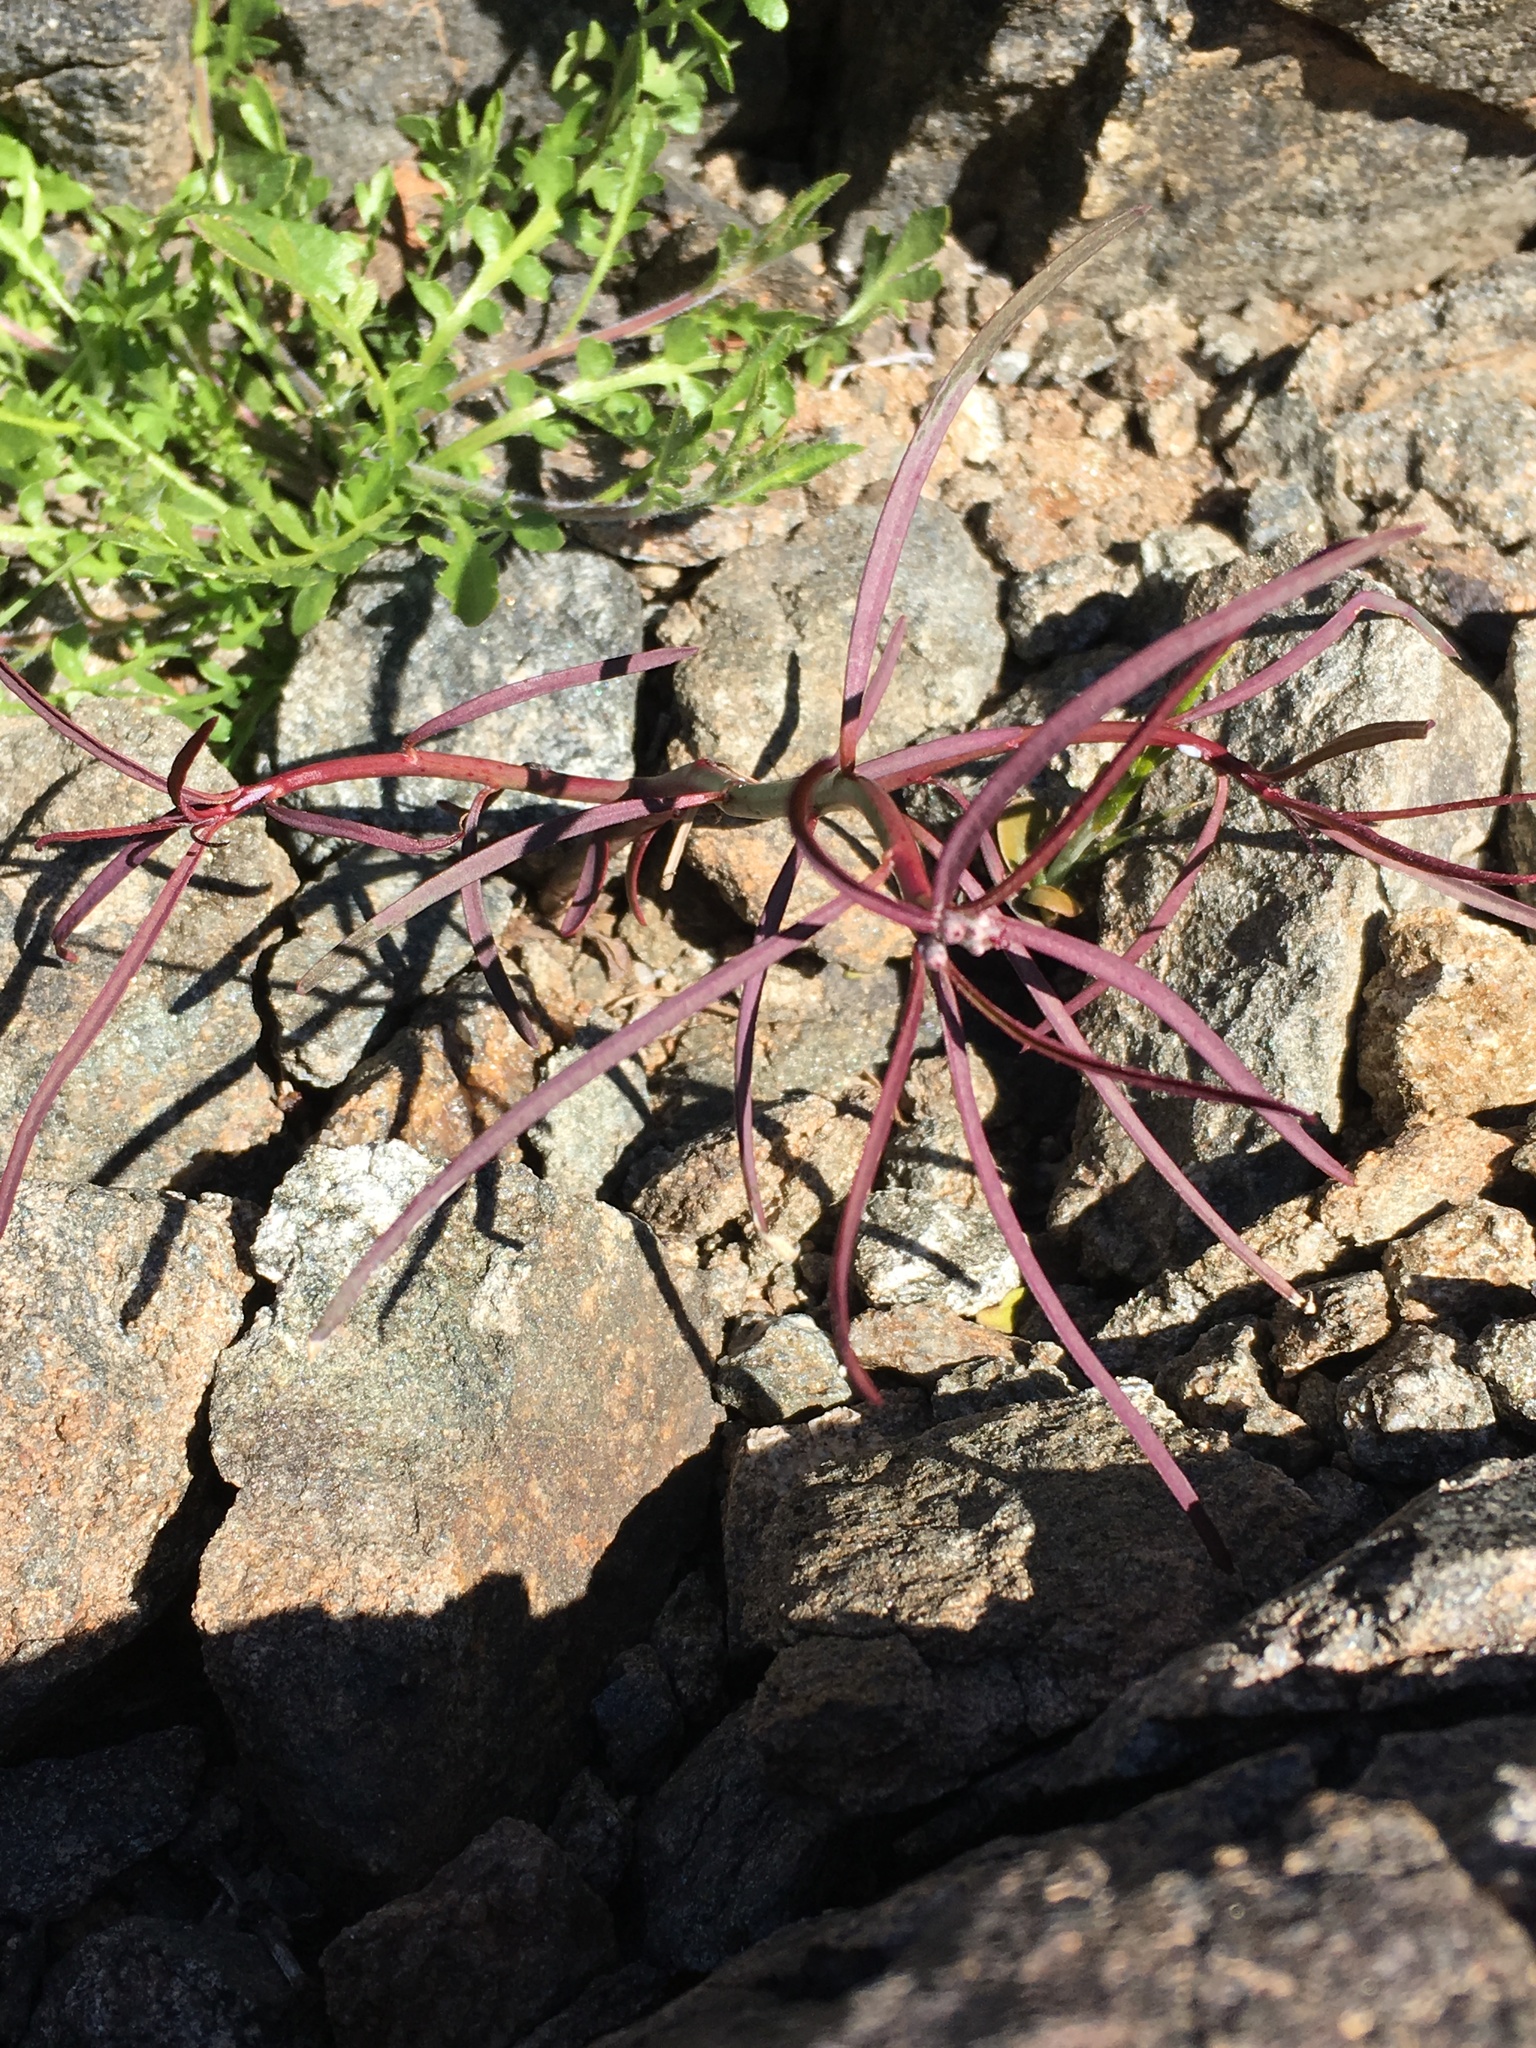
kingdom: Plantae
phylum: Tracheophyta
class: Magnoliopsida
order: Malpighiales
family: Euphorbiaceae
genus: Euphorbia
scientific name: Euphorbia eriantha
